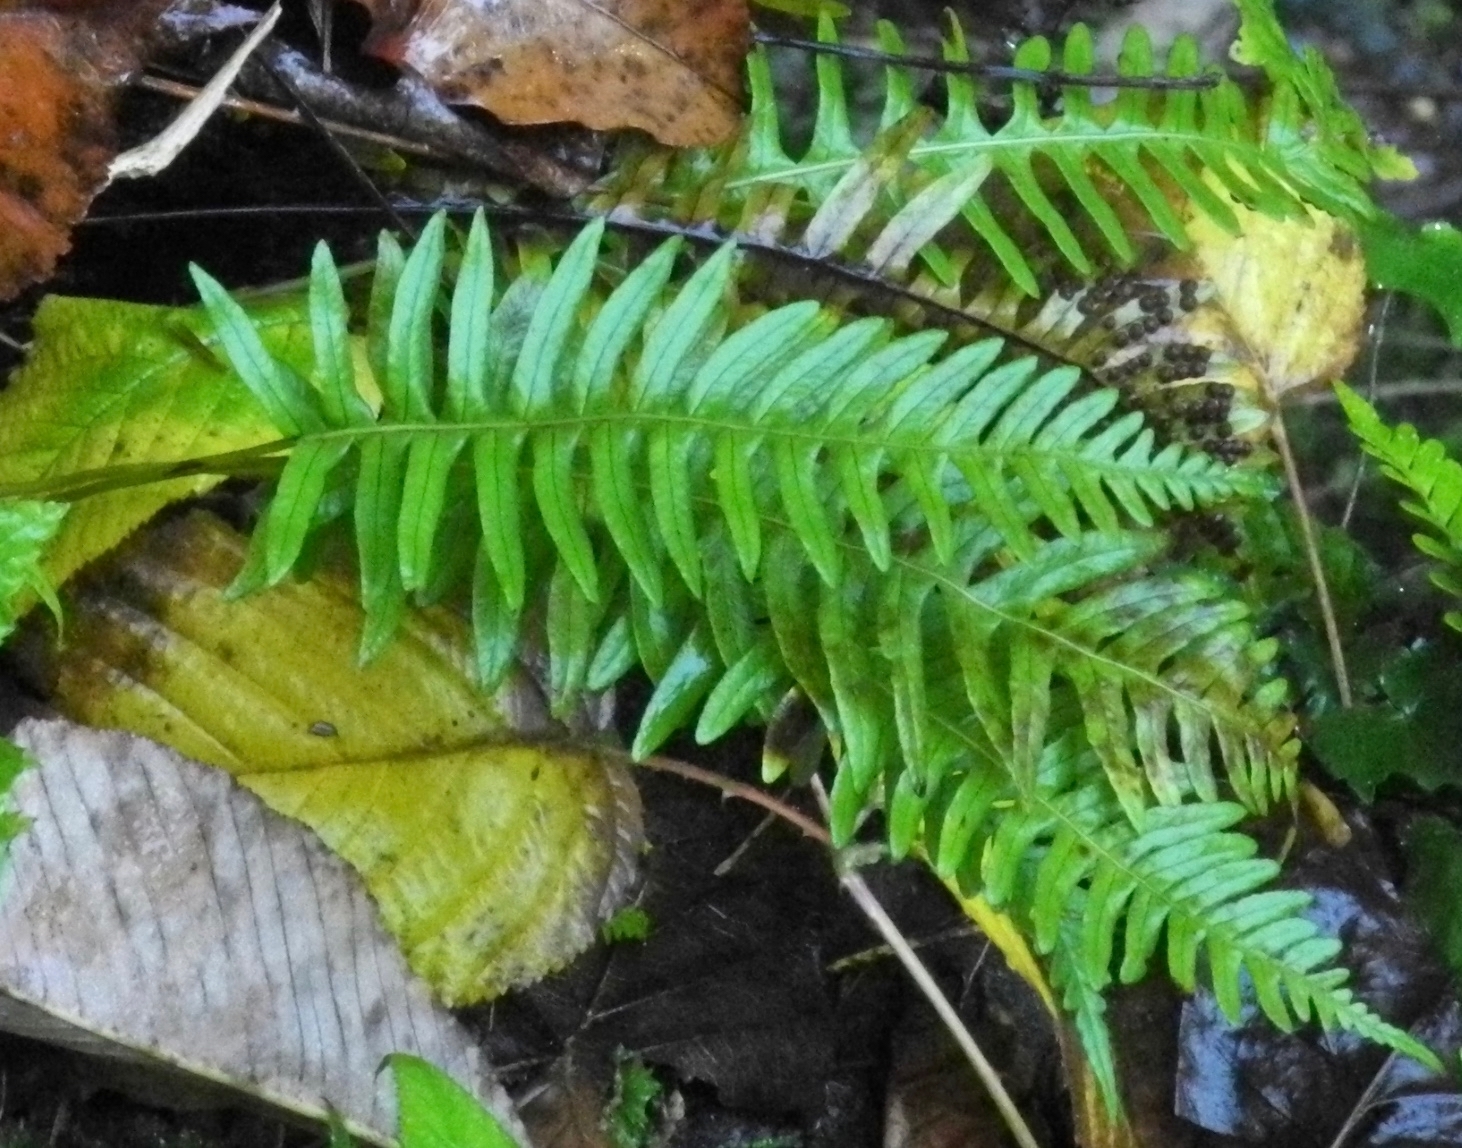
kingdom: Plantae
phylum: Tracheophyta
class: Polypodiopsida
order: Polypodiales
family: Polypodiaceae
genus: Polypodium
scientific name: Polypodium virginianum
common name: American wall fern
